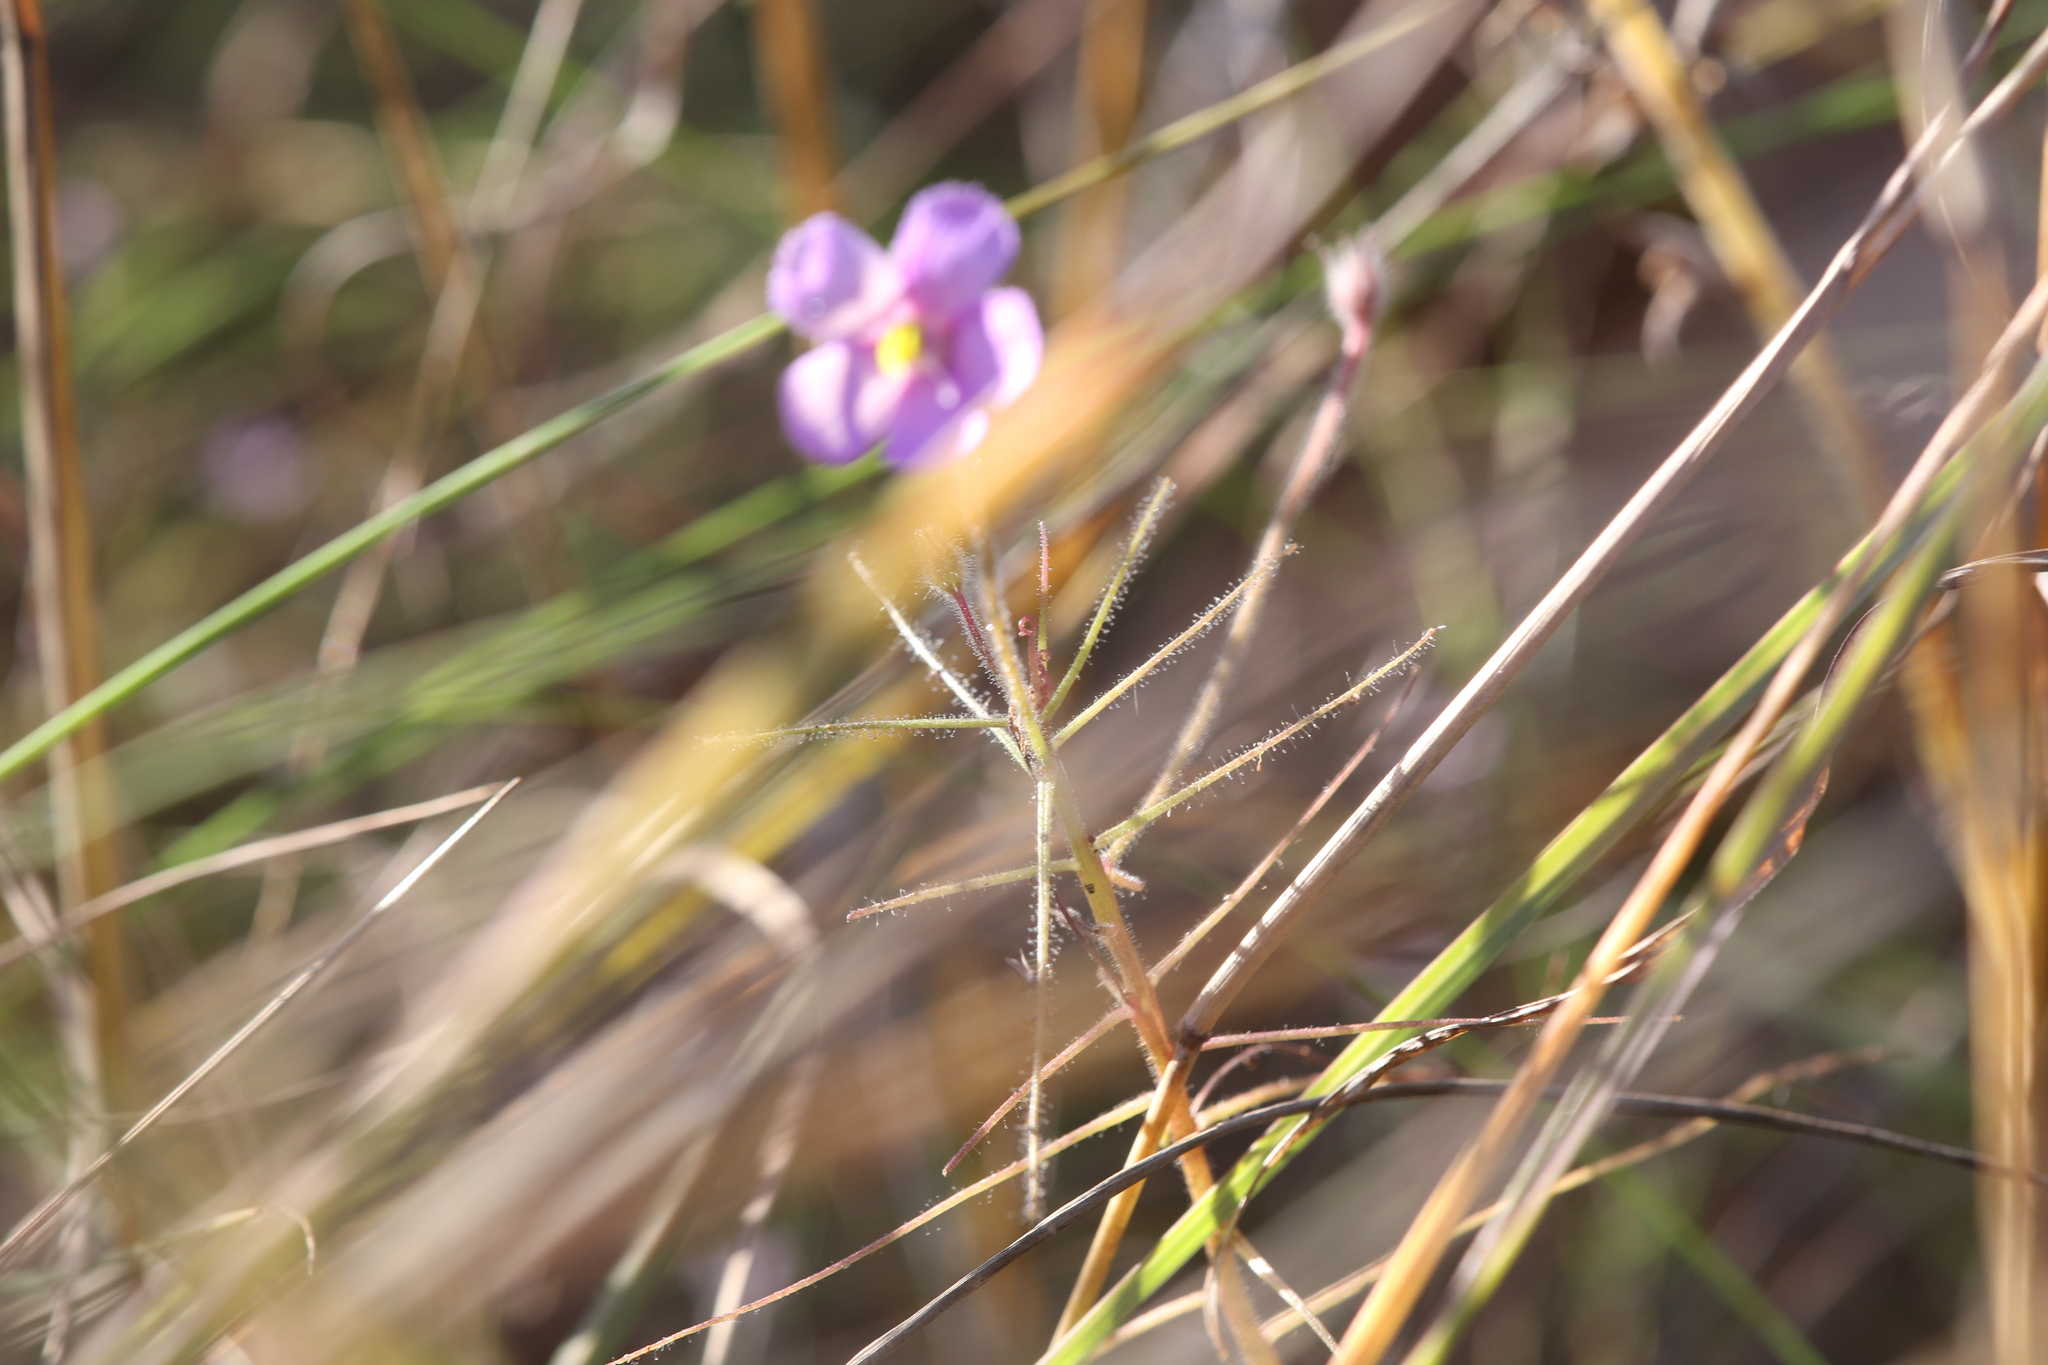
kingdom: Plantae
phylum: Tracheophyta
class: Magnoliopsida
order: Lamiales
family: Byblidaceae
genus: Byblis
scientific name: Byblis filifolia
